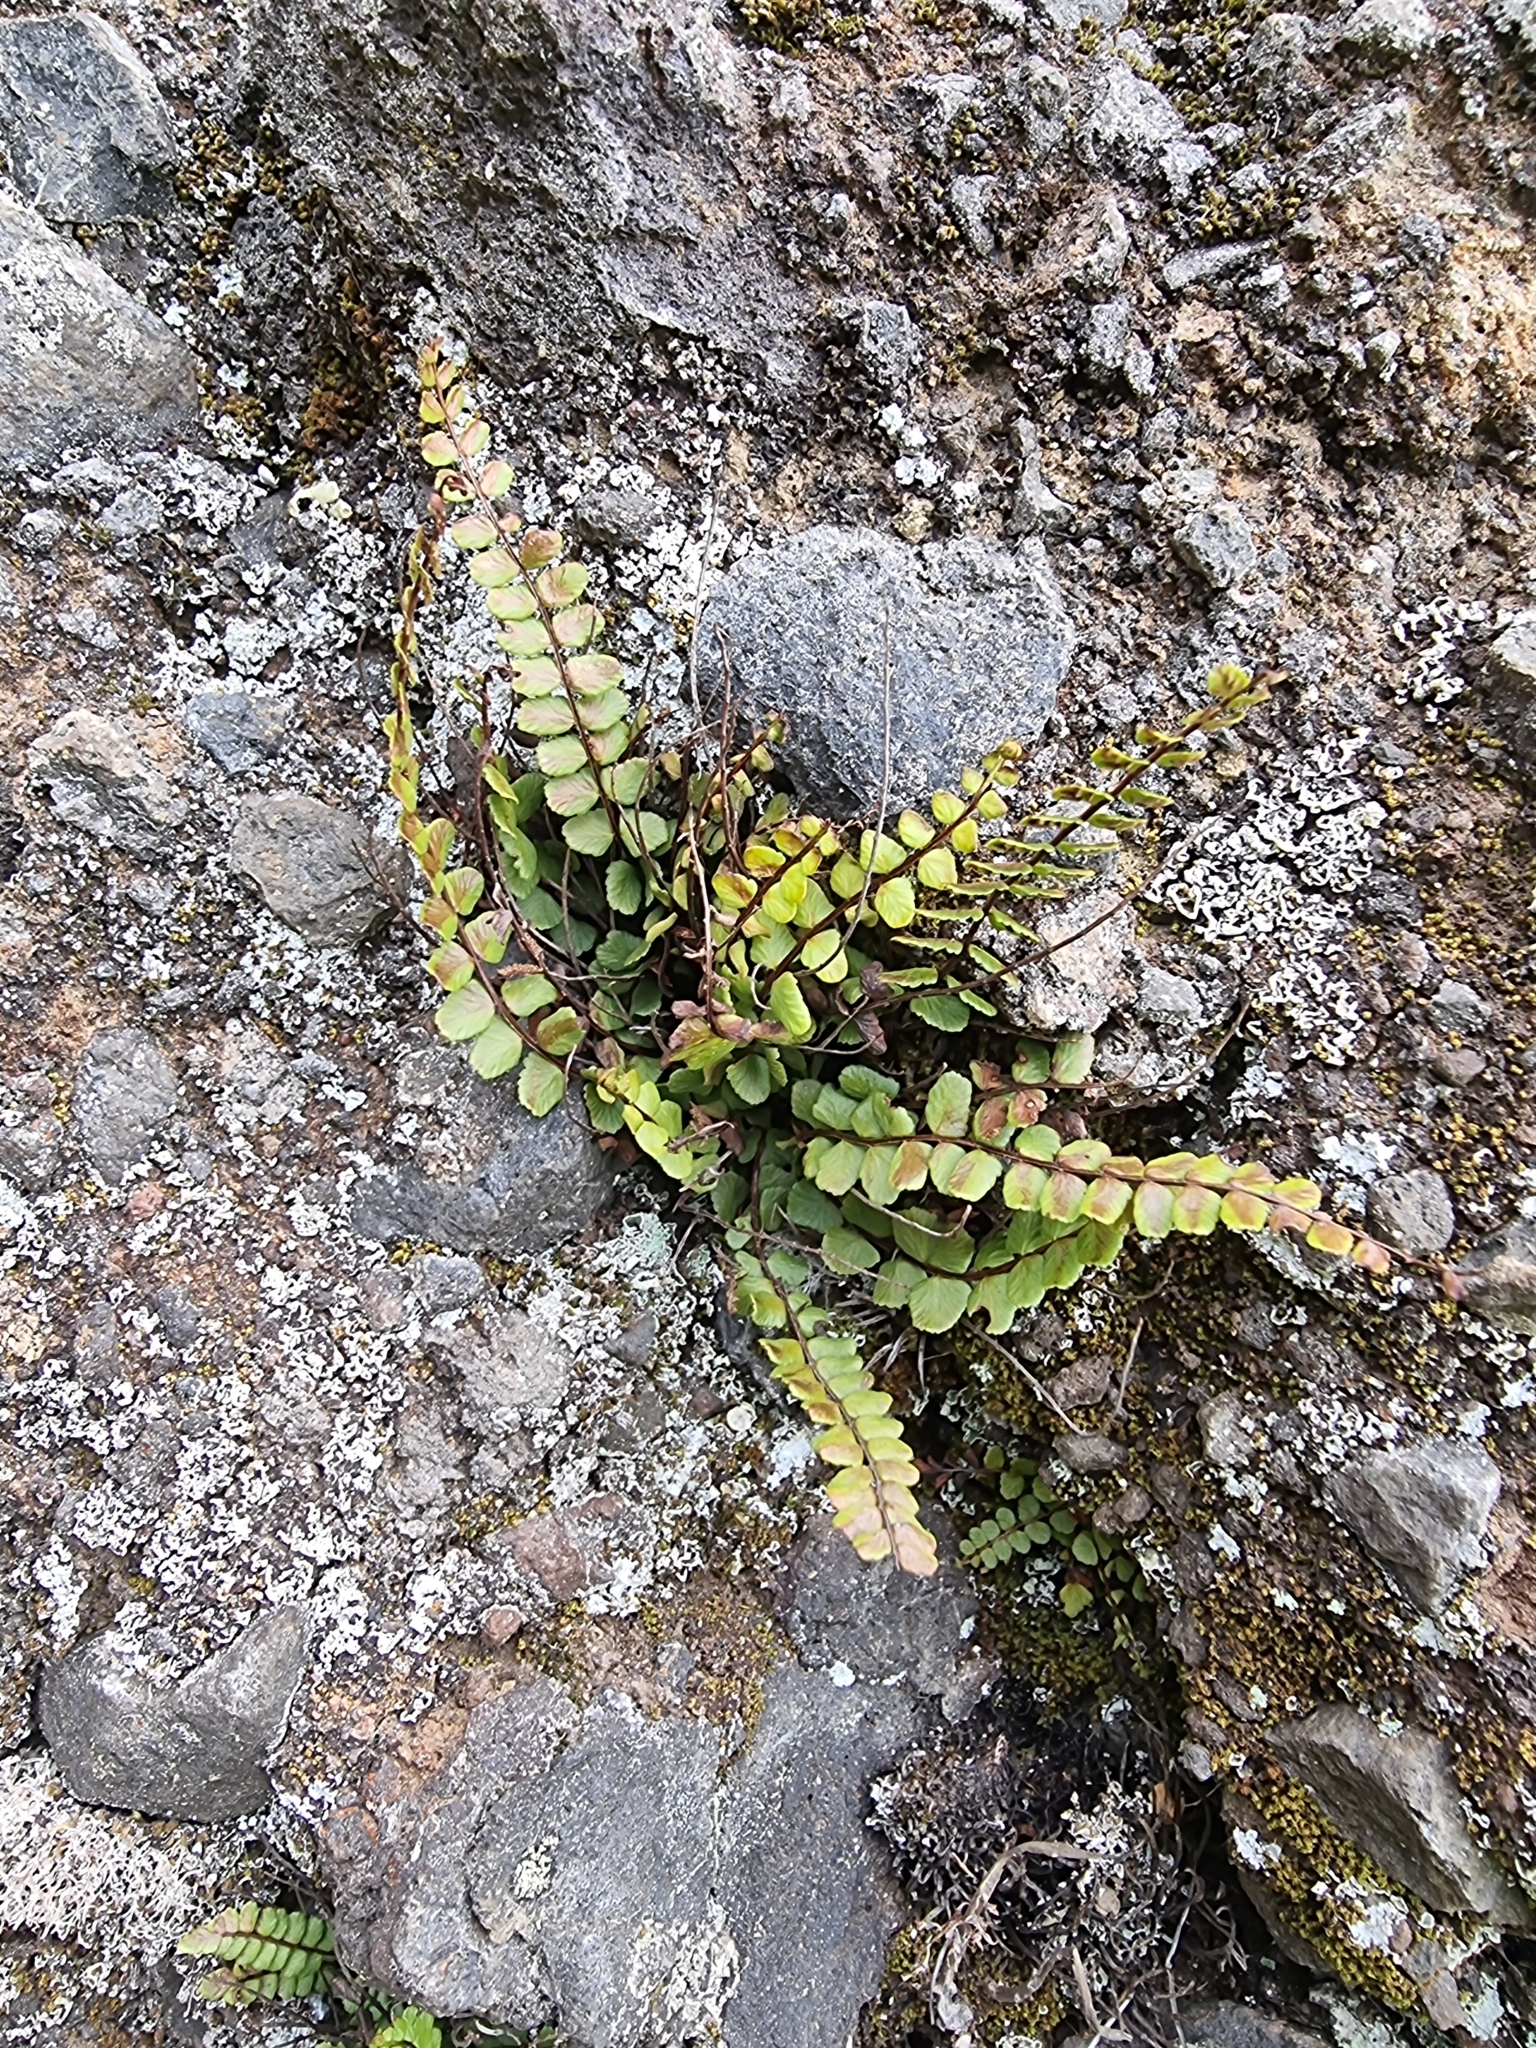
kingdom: Plantae
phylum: Tracheophyta
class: Polypodiopsida
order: Polypodiales
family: Aspleniaceae
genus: Asplenium
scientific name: Asplenium trichomanes
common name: Maidenhair spleenwort
